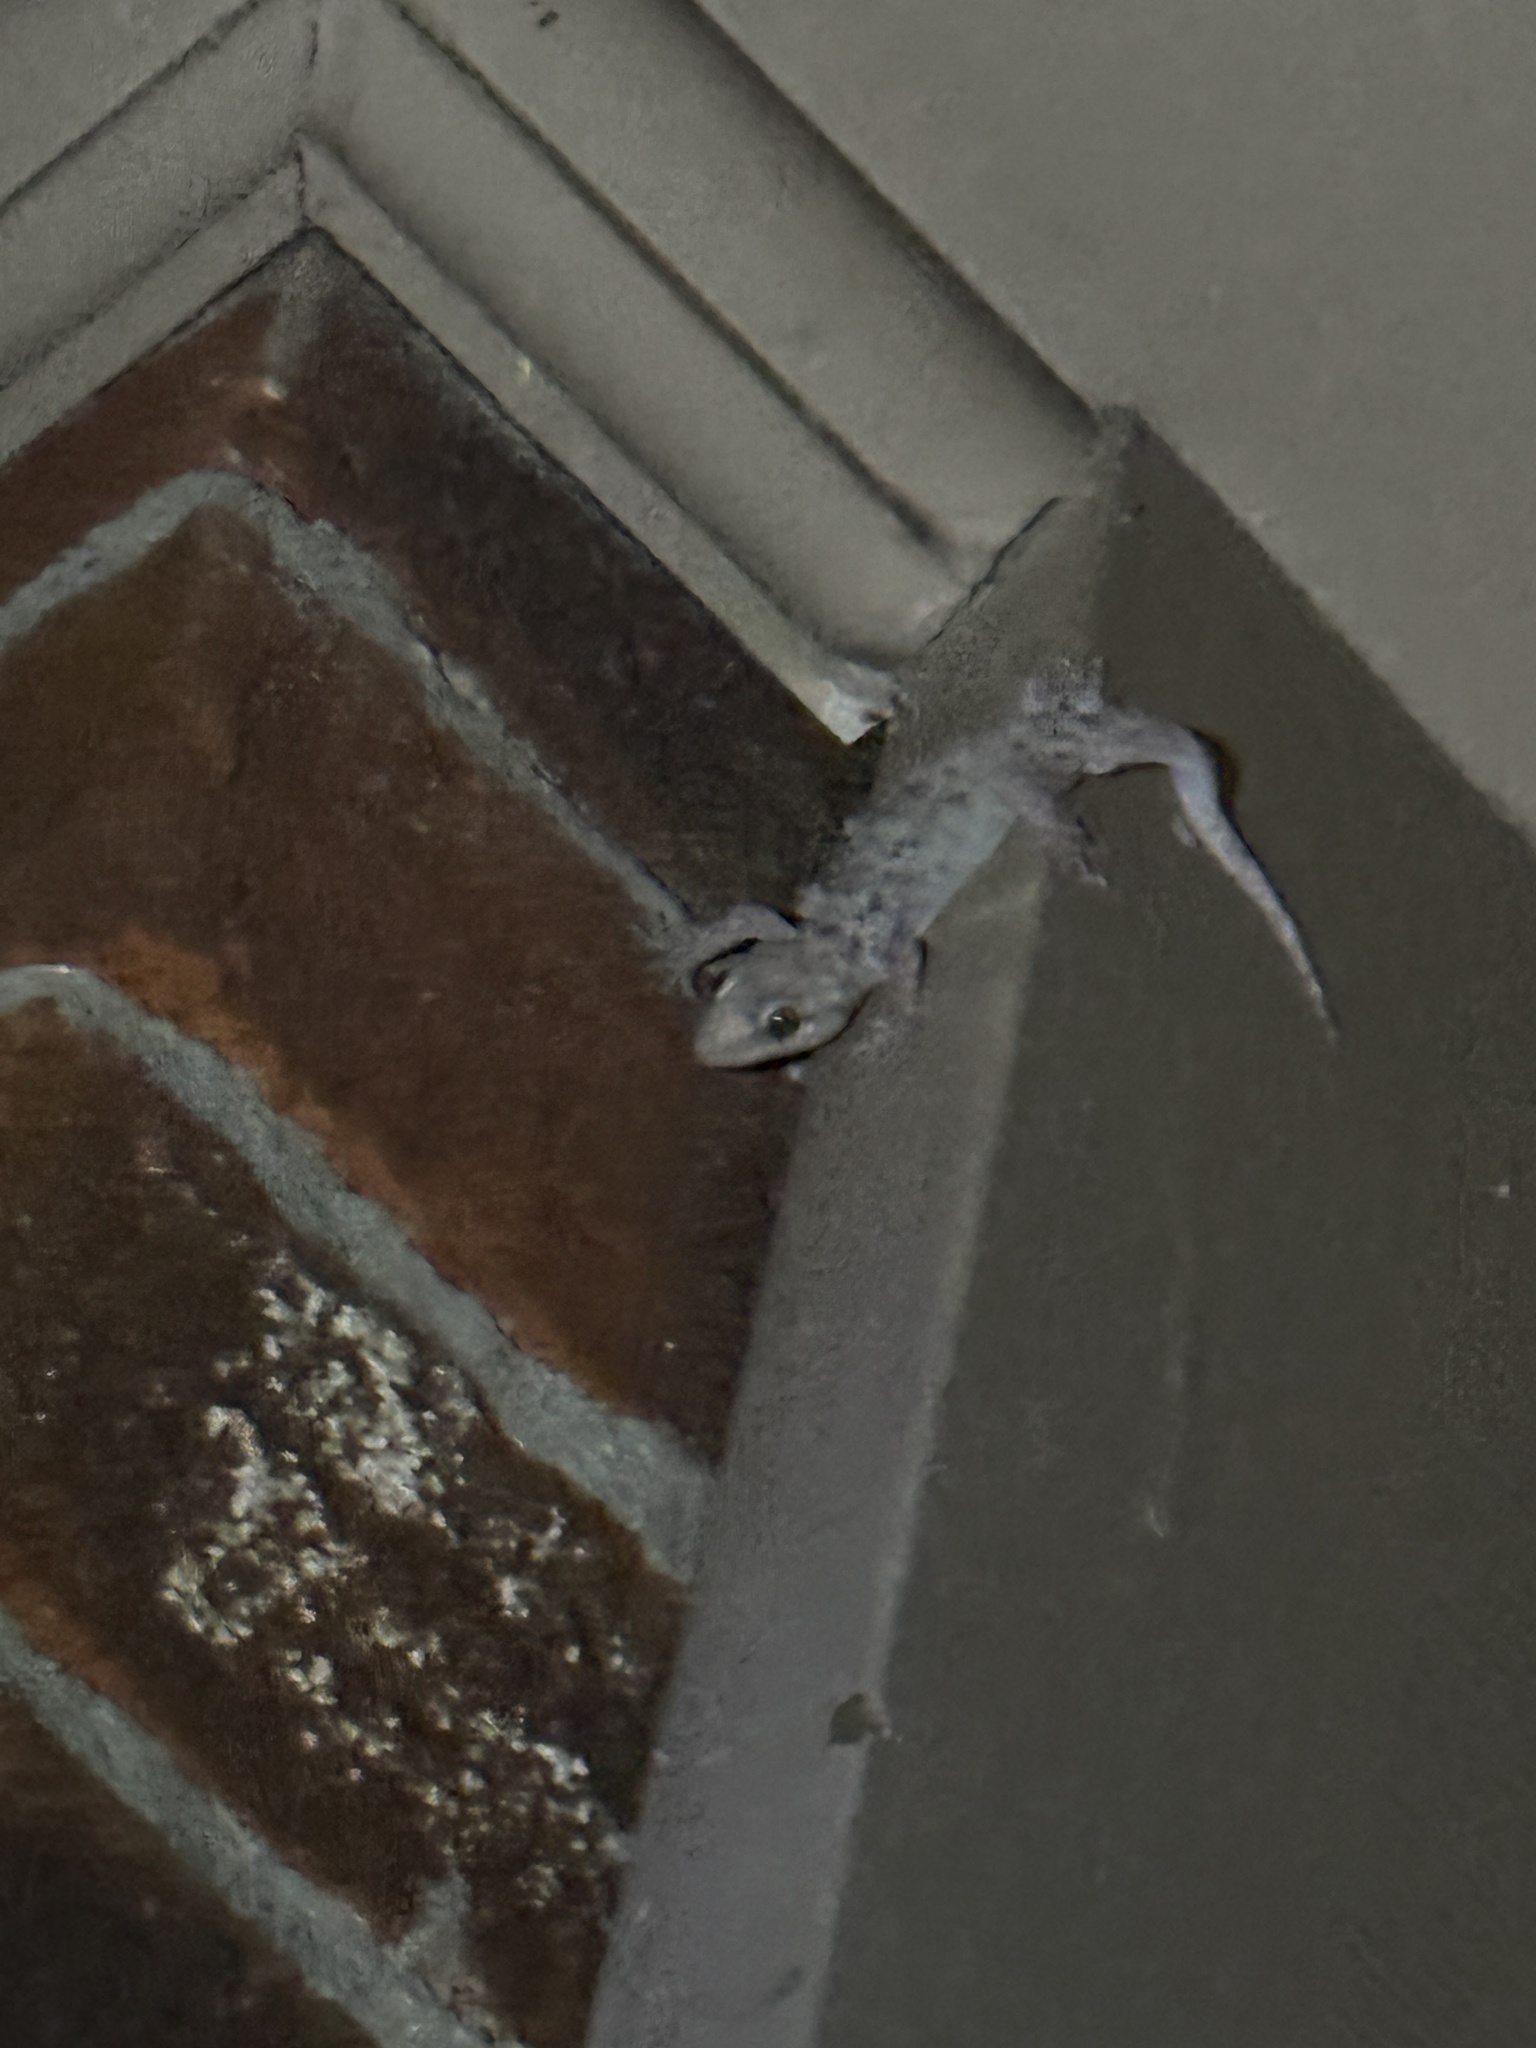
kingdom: Animalia
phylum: Chordata
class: Squamata
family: Gekkonidae
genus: Hemidactylus
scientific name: Hemidactylus parvimaculatus
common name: Spotted house gecko
